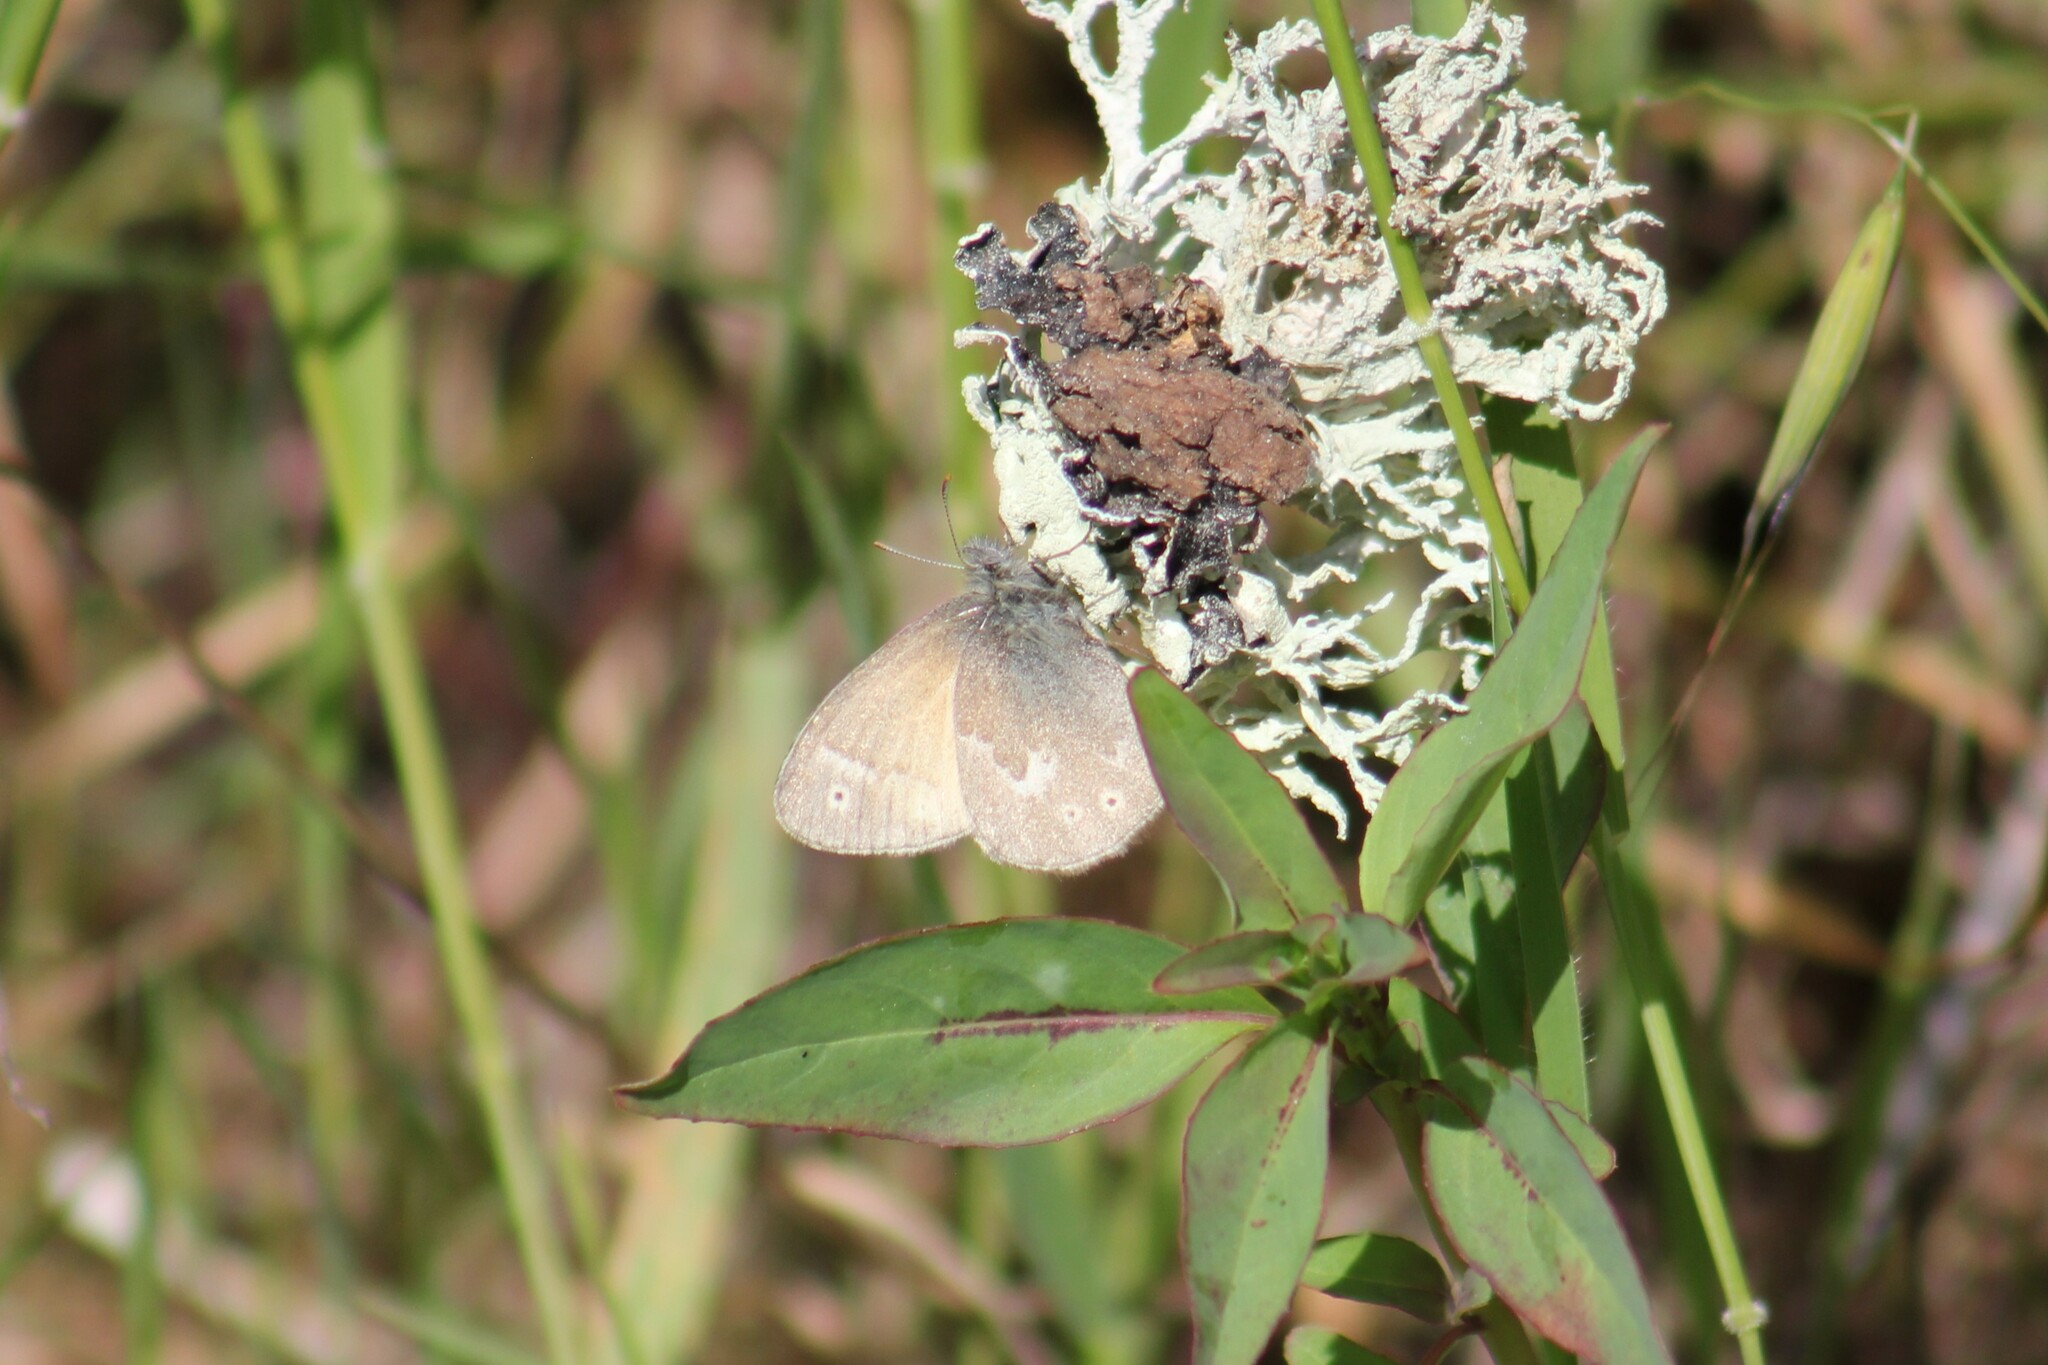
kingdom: Animalia
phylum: Arthropoda
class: Insecta
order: Lepidoptera
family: Nymphalidae
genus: Coenonympha
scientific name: Coenonympha california
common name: Common ringlet
